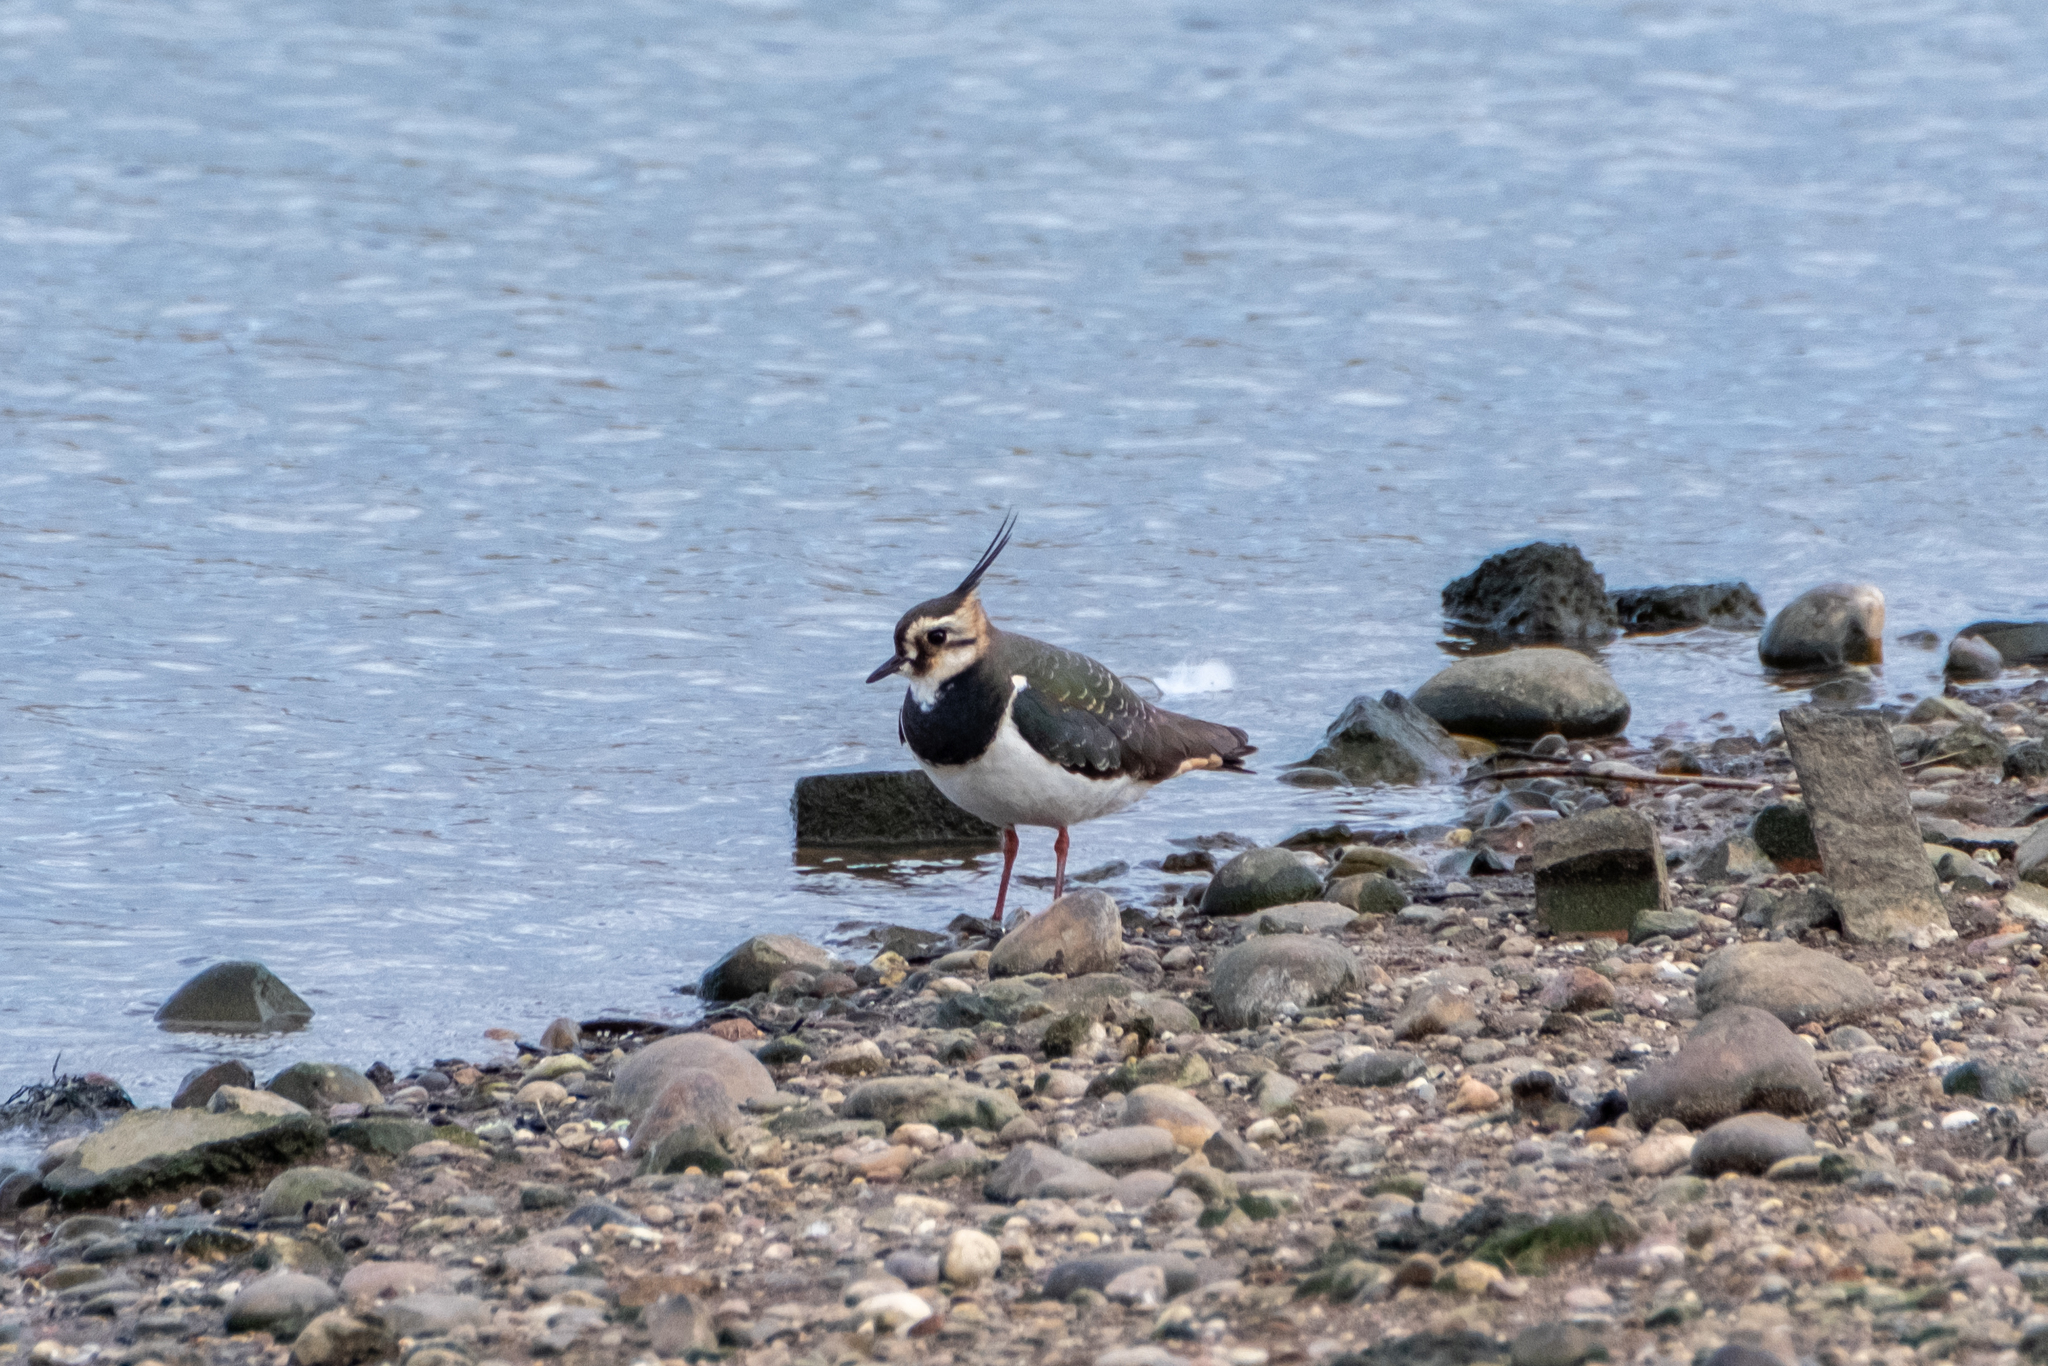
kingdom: Animalia
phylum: Chordata
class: Aves
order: Charadriiformes
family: Charadriidae
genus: Vanellus
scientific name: Vanellus vanellus
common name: Northern lapwing
